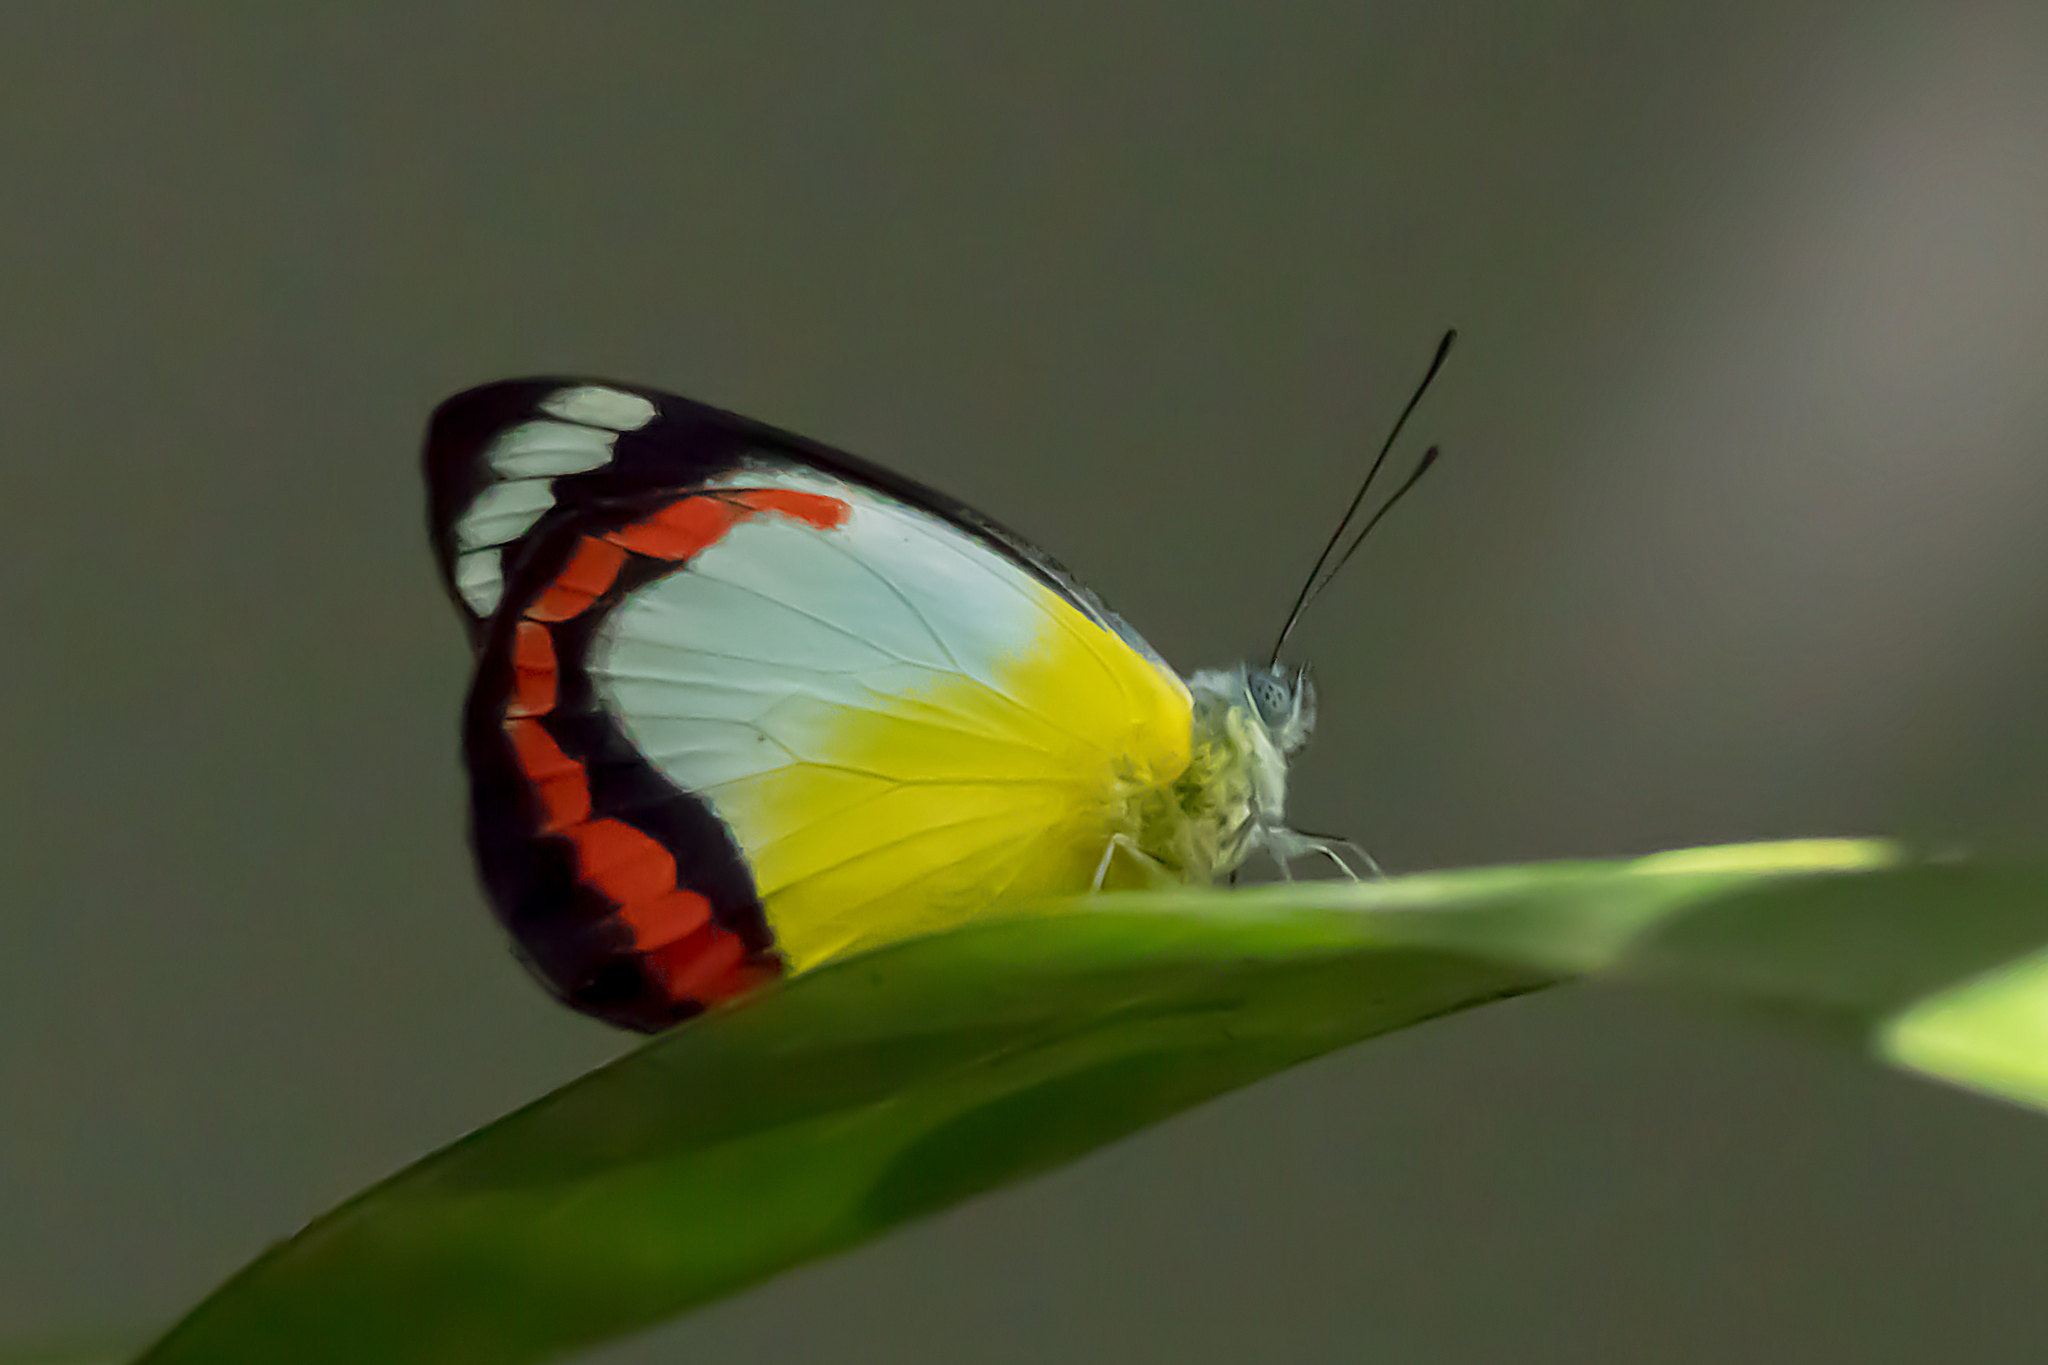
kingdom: Animalia
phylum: Arthropoda
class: Insecta
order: Lepidoptera
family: Pieridae
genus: Delias
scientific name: Delias mysis
